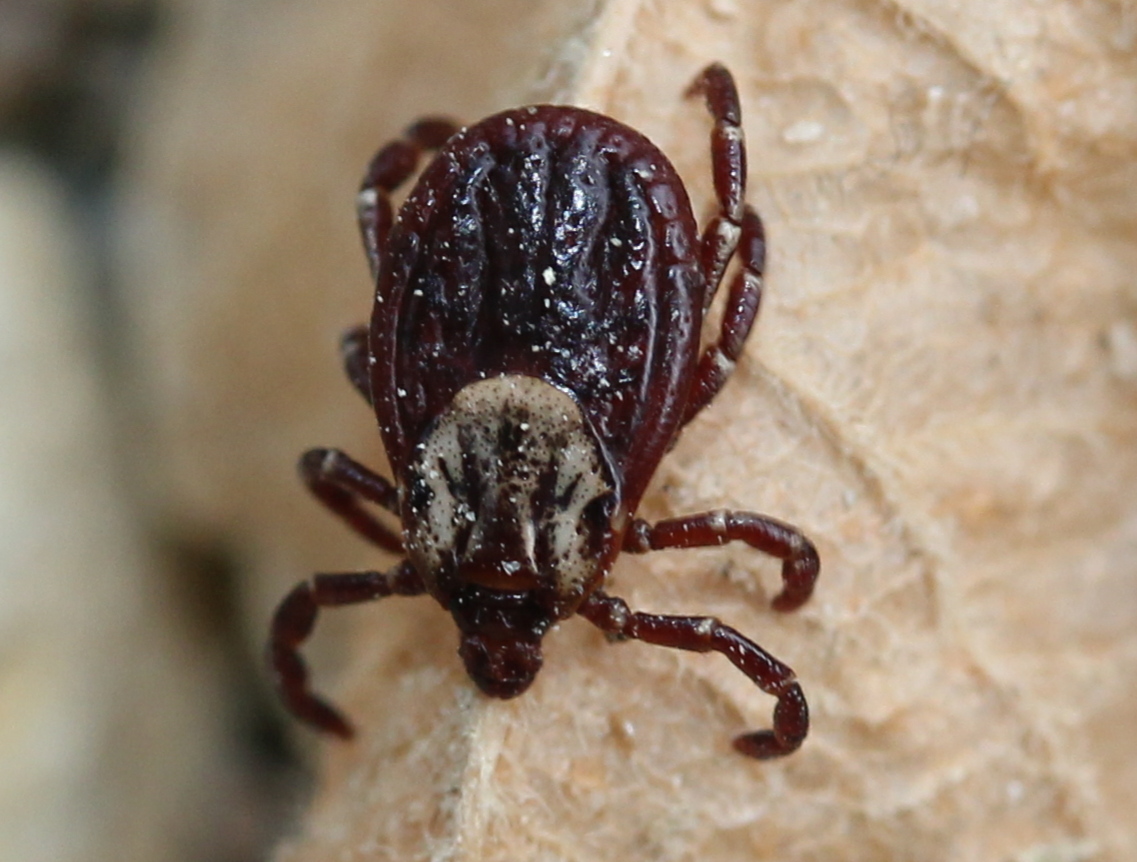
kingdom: Animalia
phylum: Arthropoda
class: Arachnida
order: Ixodida
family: Ixodidae
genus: Dermacentor
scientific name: Dermacentor variabilis
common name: American dog tick
